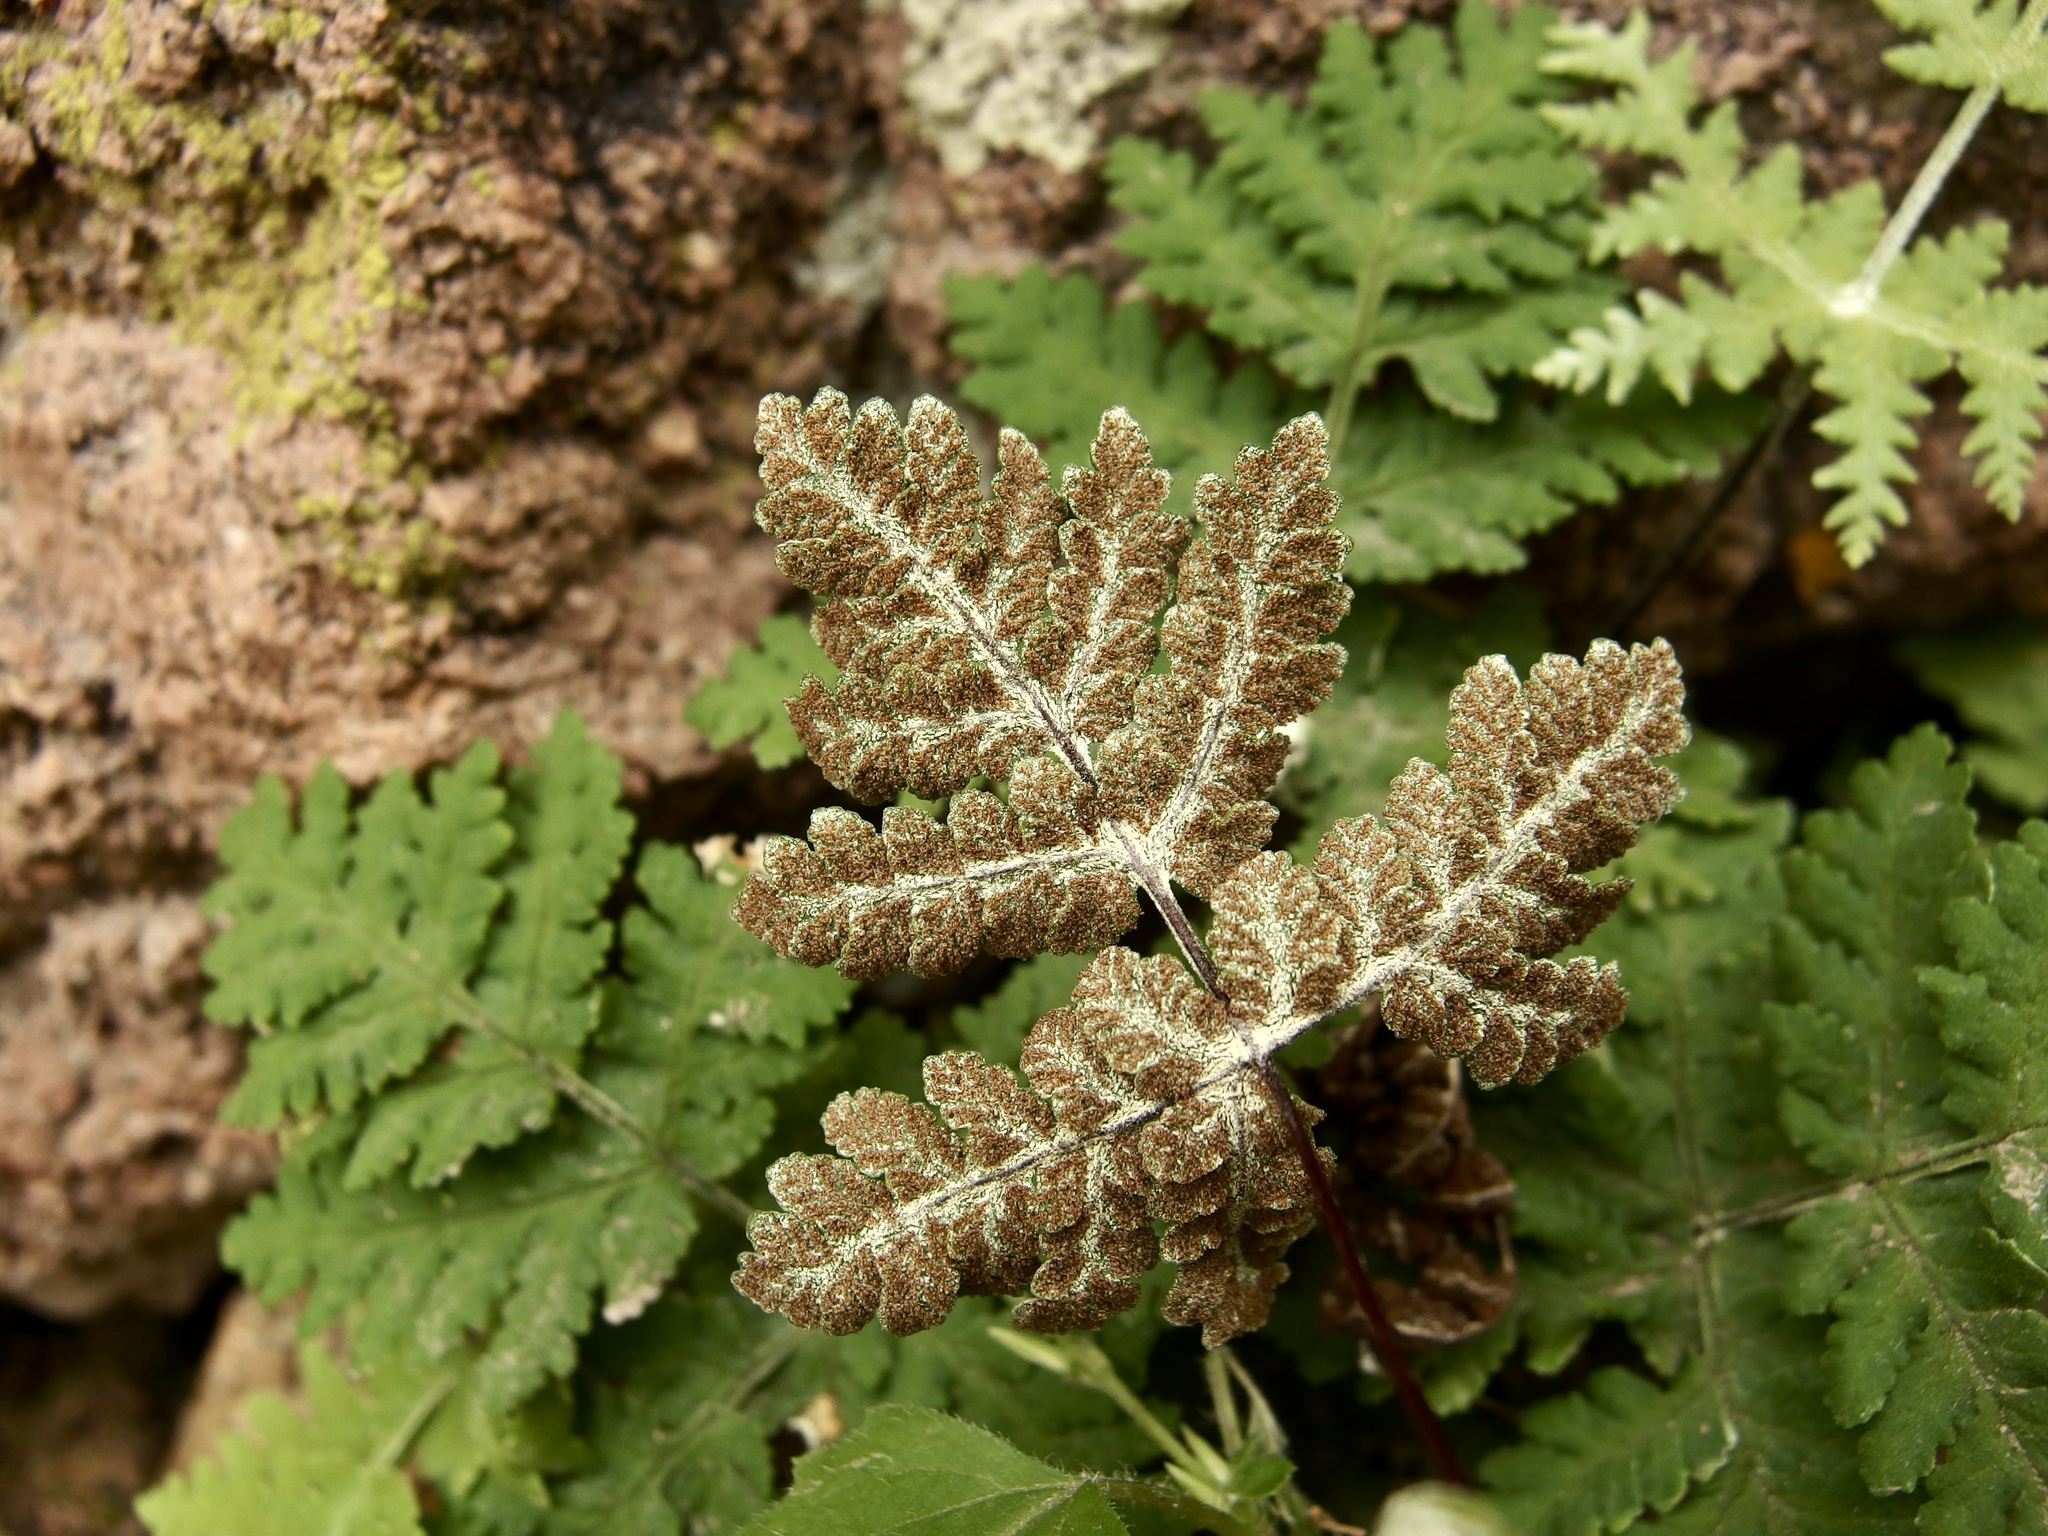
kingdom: Plantae
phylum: Tracheophyta
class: Polypodiopsida
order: Polypodiales
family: Pteridaceae
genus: Pentagramma
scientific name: Pentagramma maxonii
